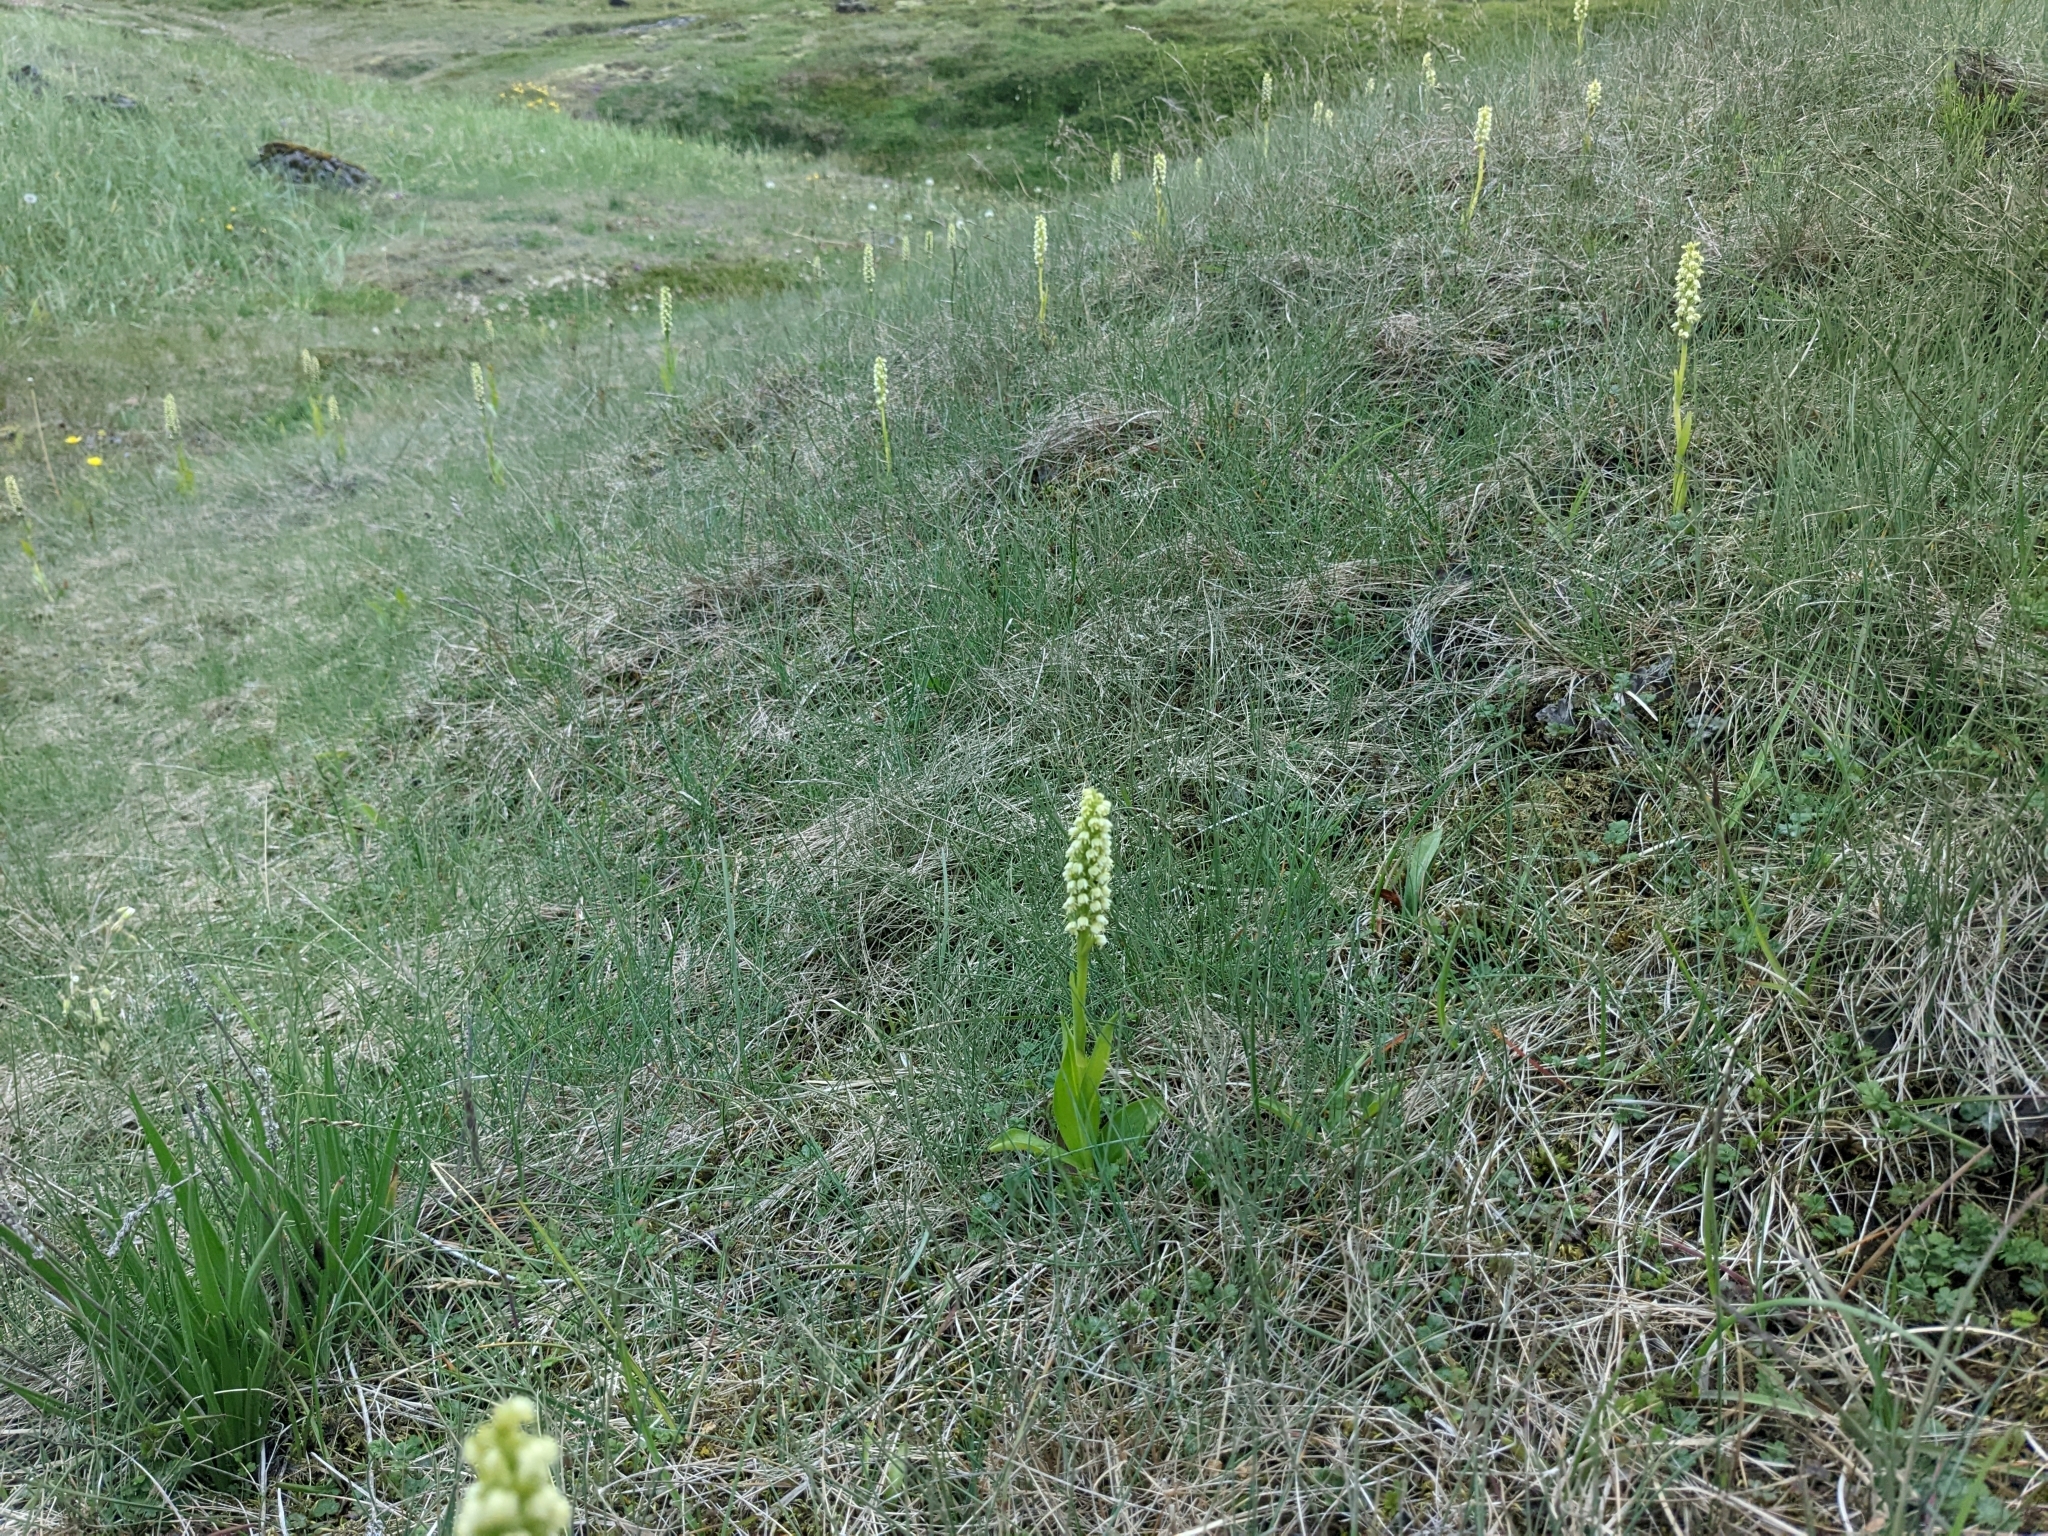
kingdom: Plantae
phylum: Tracheophyta
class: Liliopsida
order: Asparagales
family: Orchidaceae
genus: Pseudorchis
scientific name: Pseudorchis albida
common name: Small-white orchid
